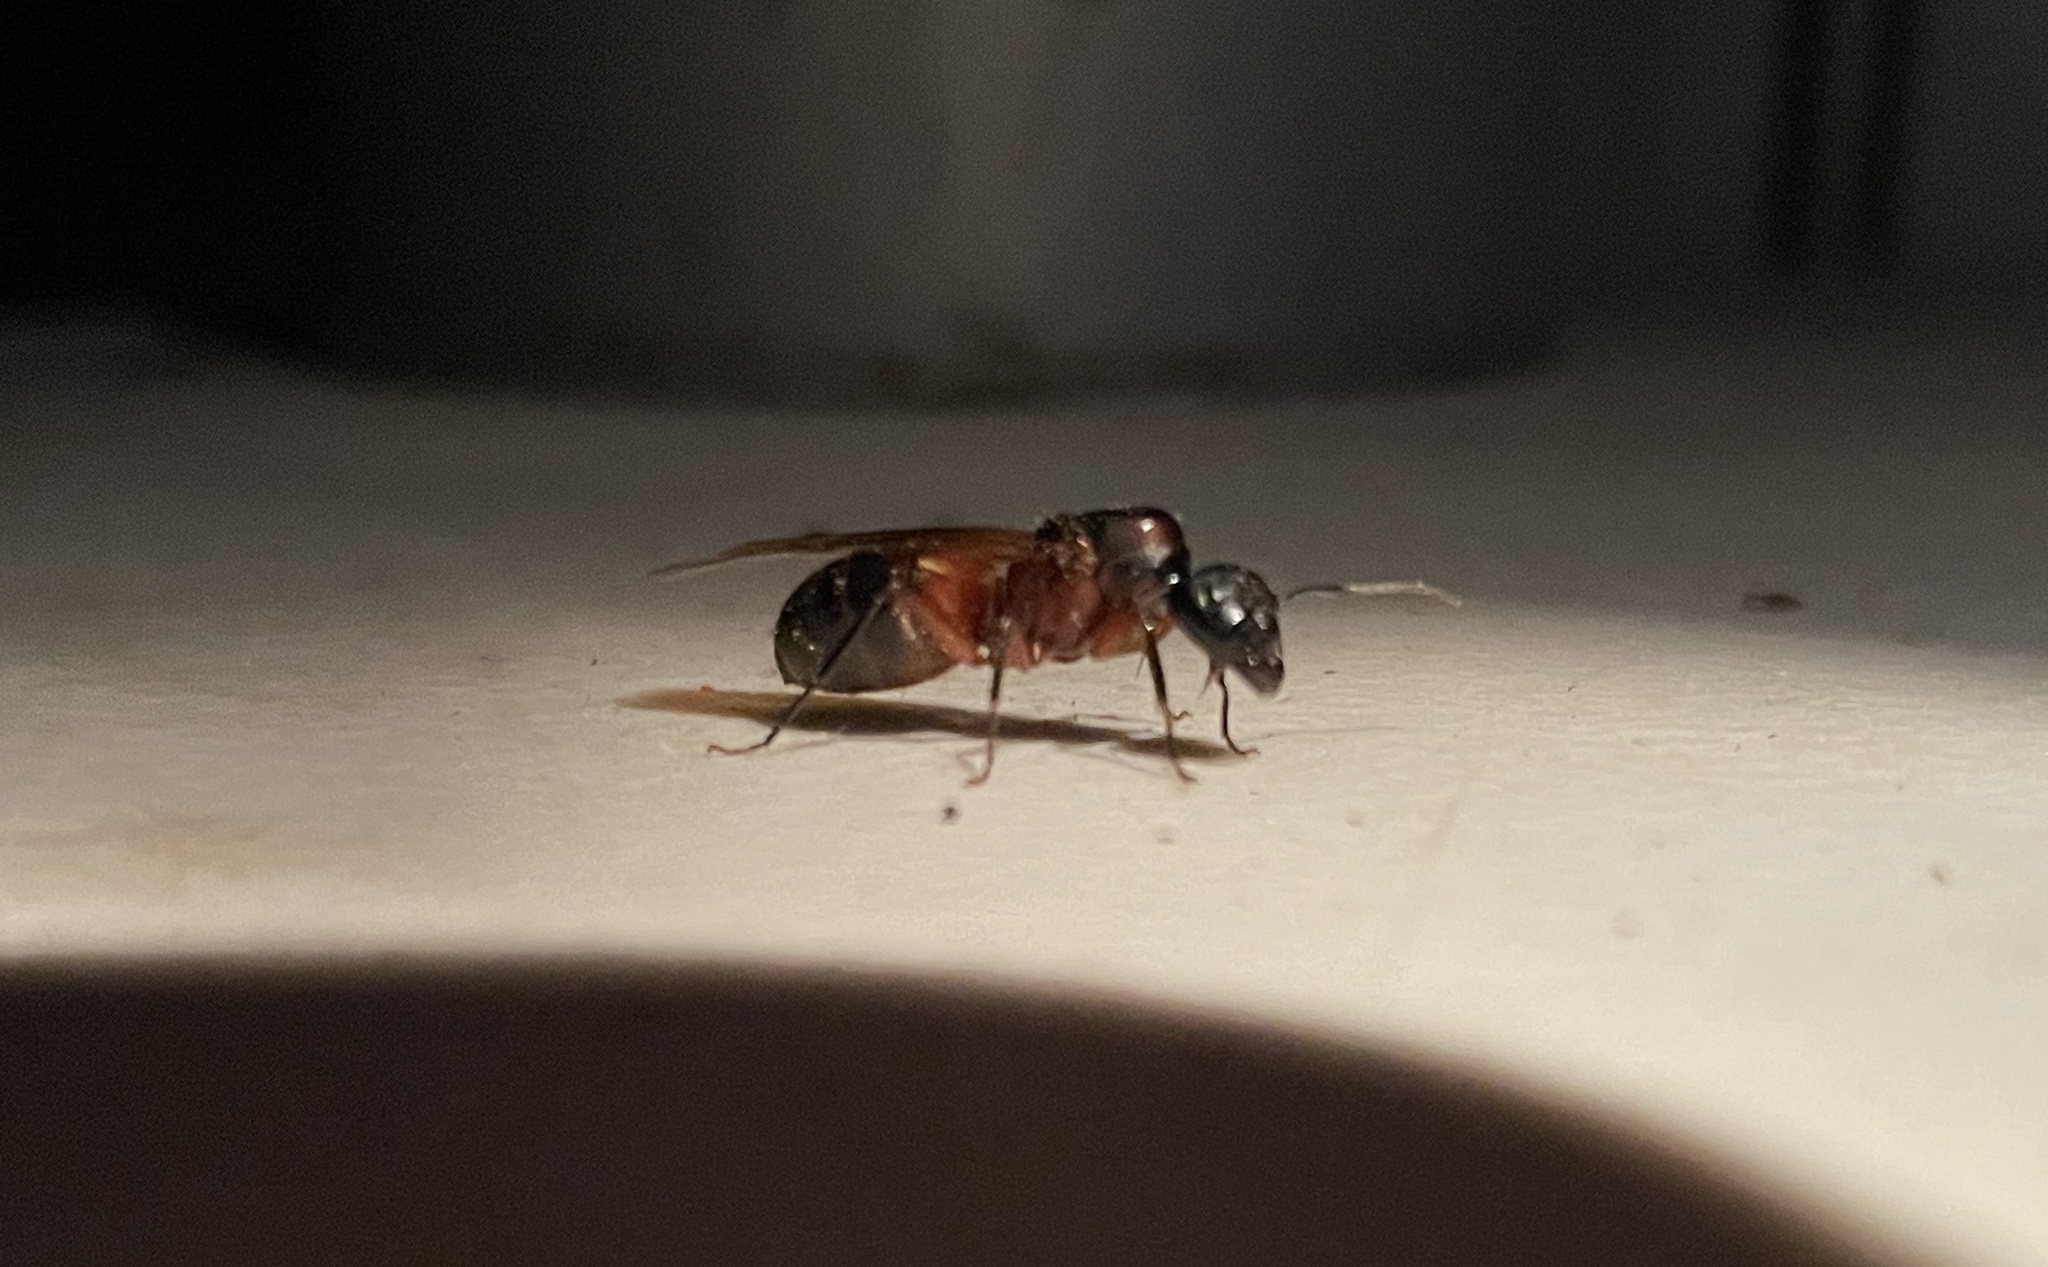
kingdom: Animalia
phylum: Arthropoda
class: Insecta
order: Hymenoptera
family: Formicidae
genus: Camponotus
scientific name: Camponotus chromaiodes
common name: Red carpenter ant
